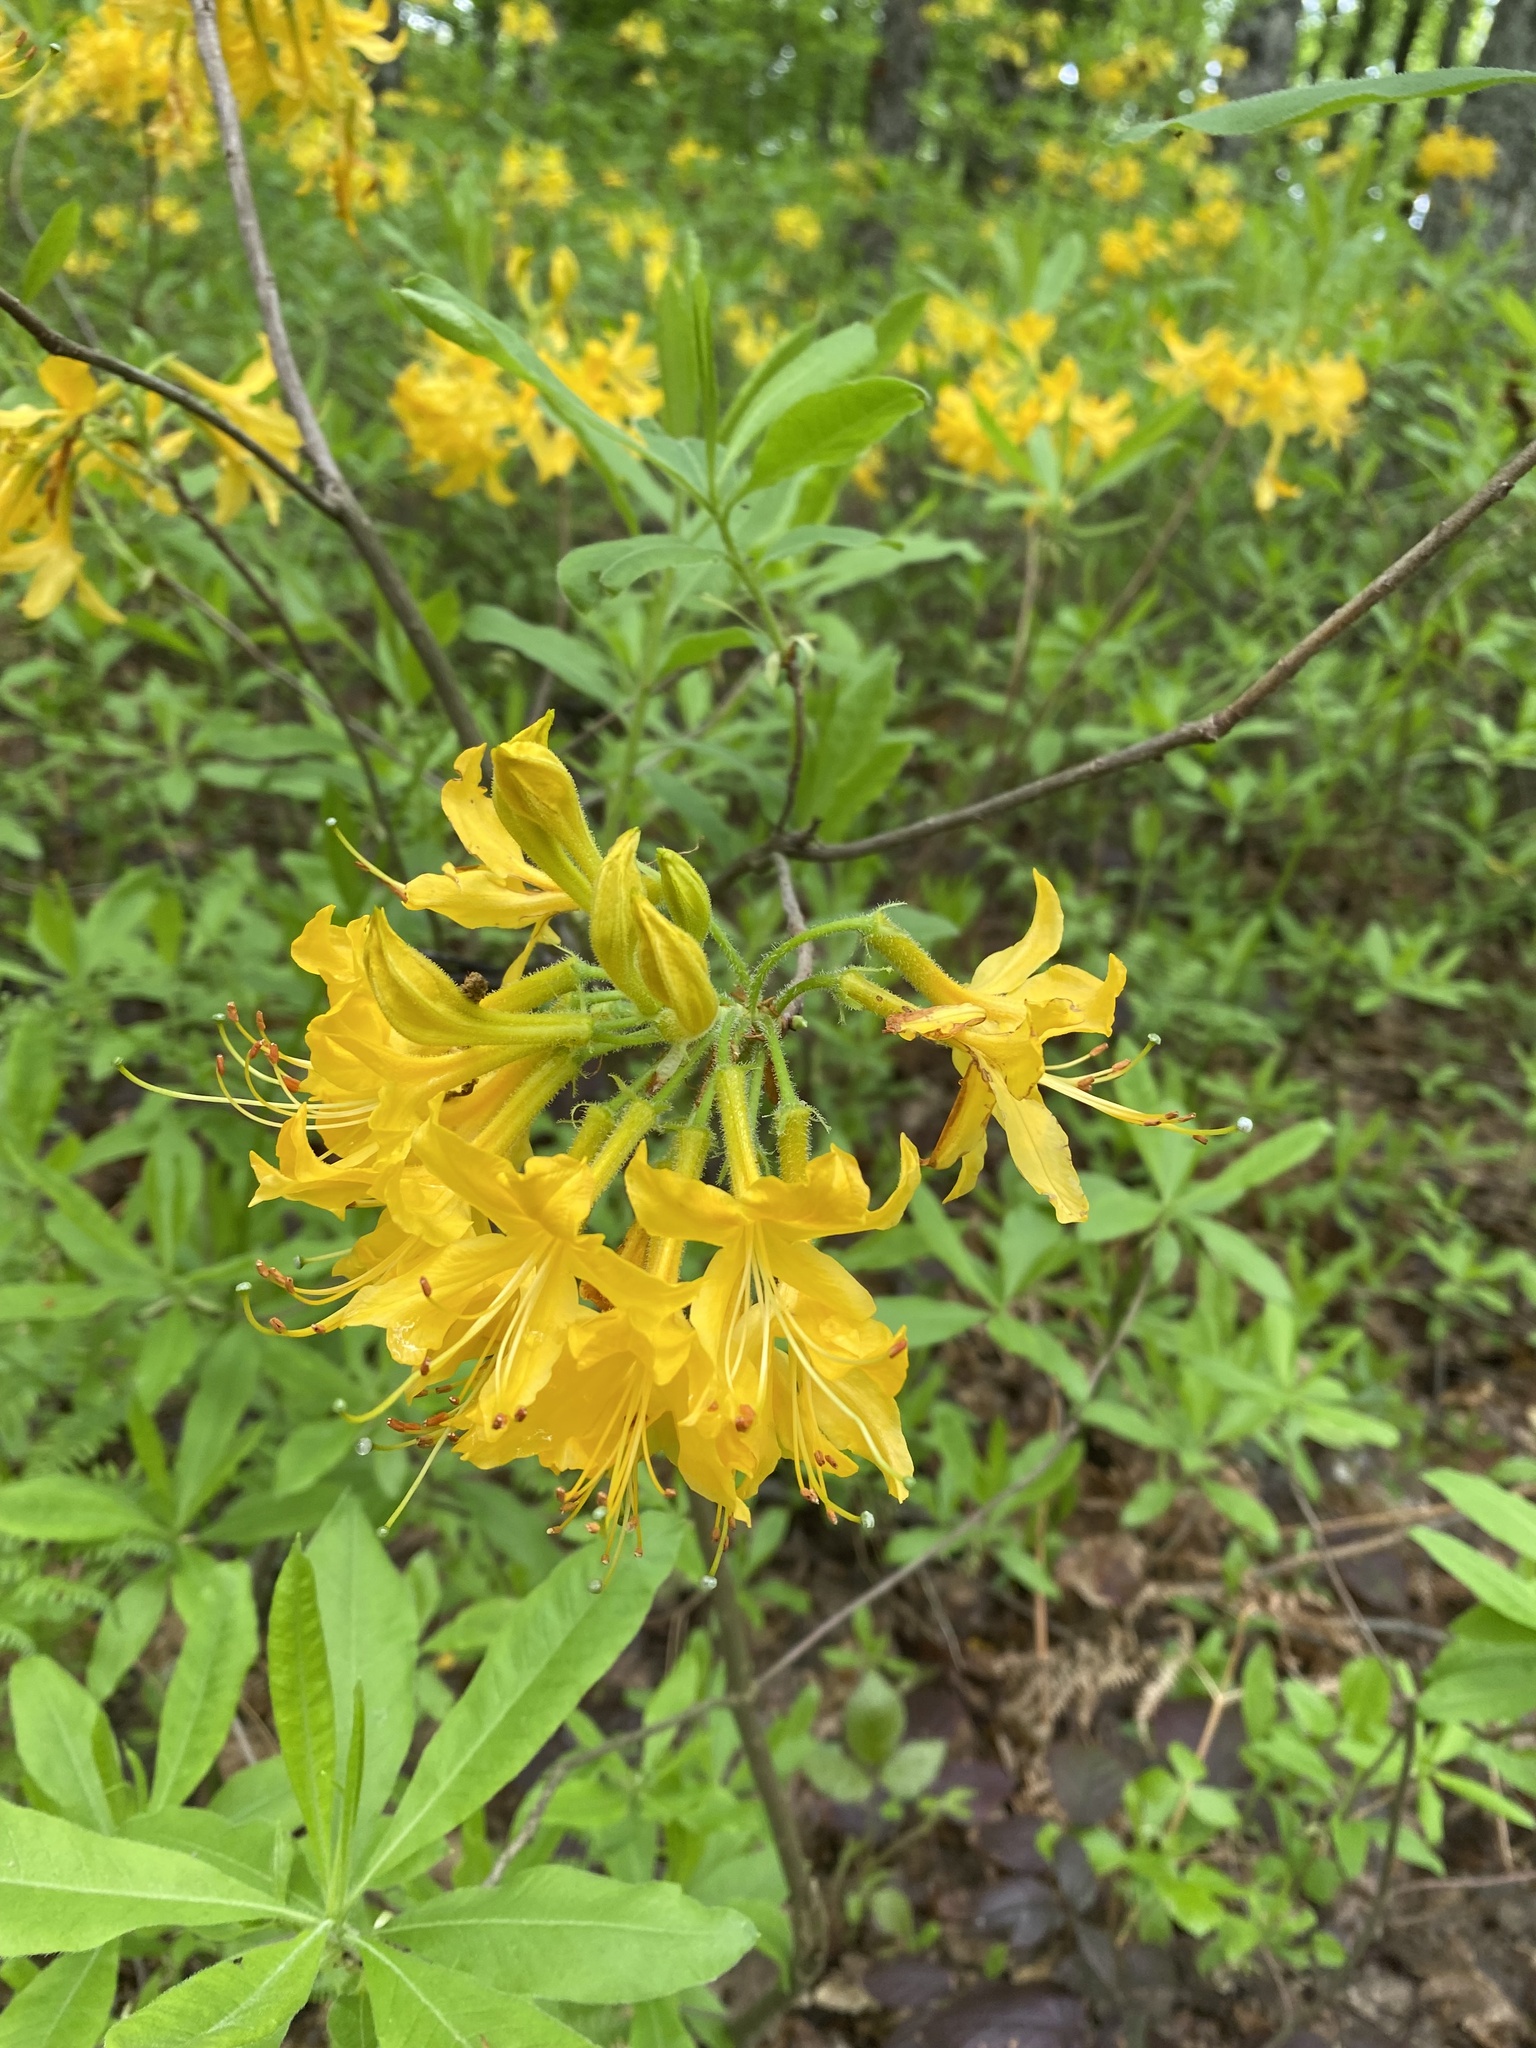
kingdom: Plantae
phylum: Tracheophyta
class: Magnoliopsida
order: Ericales
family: Ericaceae
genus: Rhododendron
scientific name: Rhododendron luteum
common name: Yellow azalea
